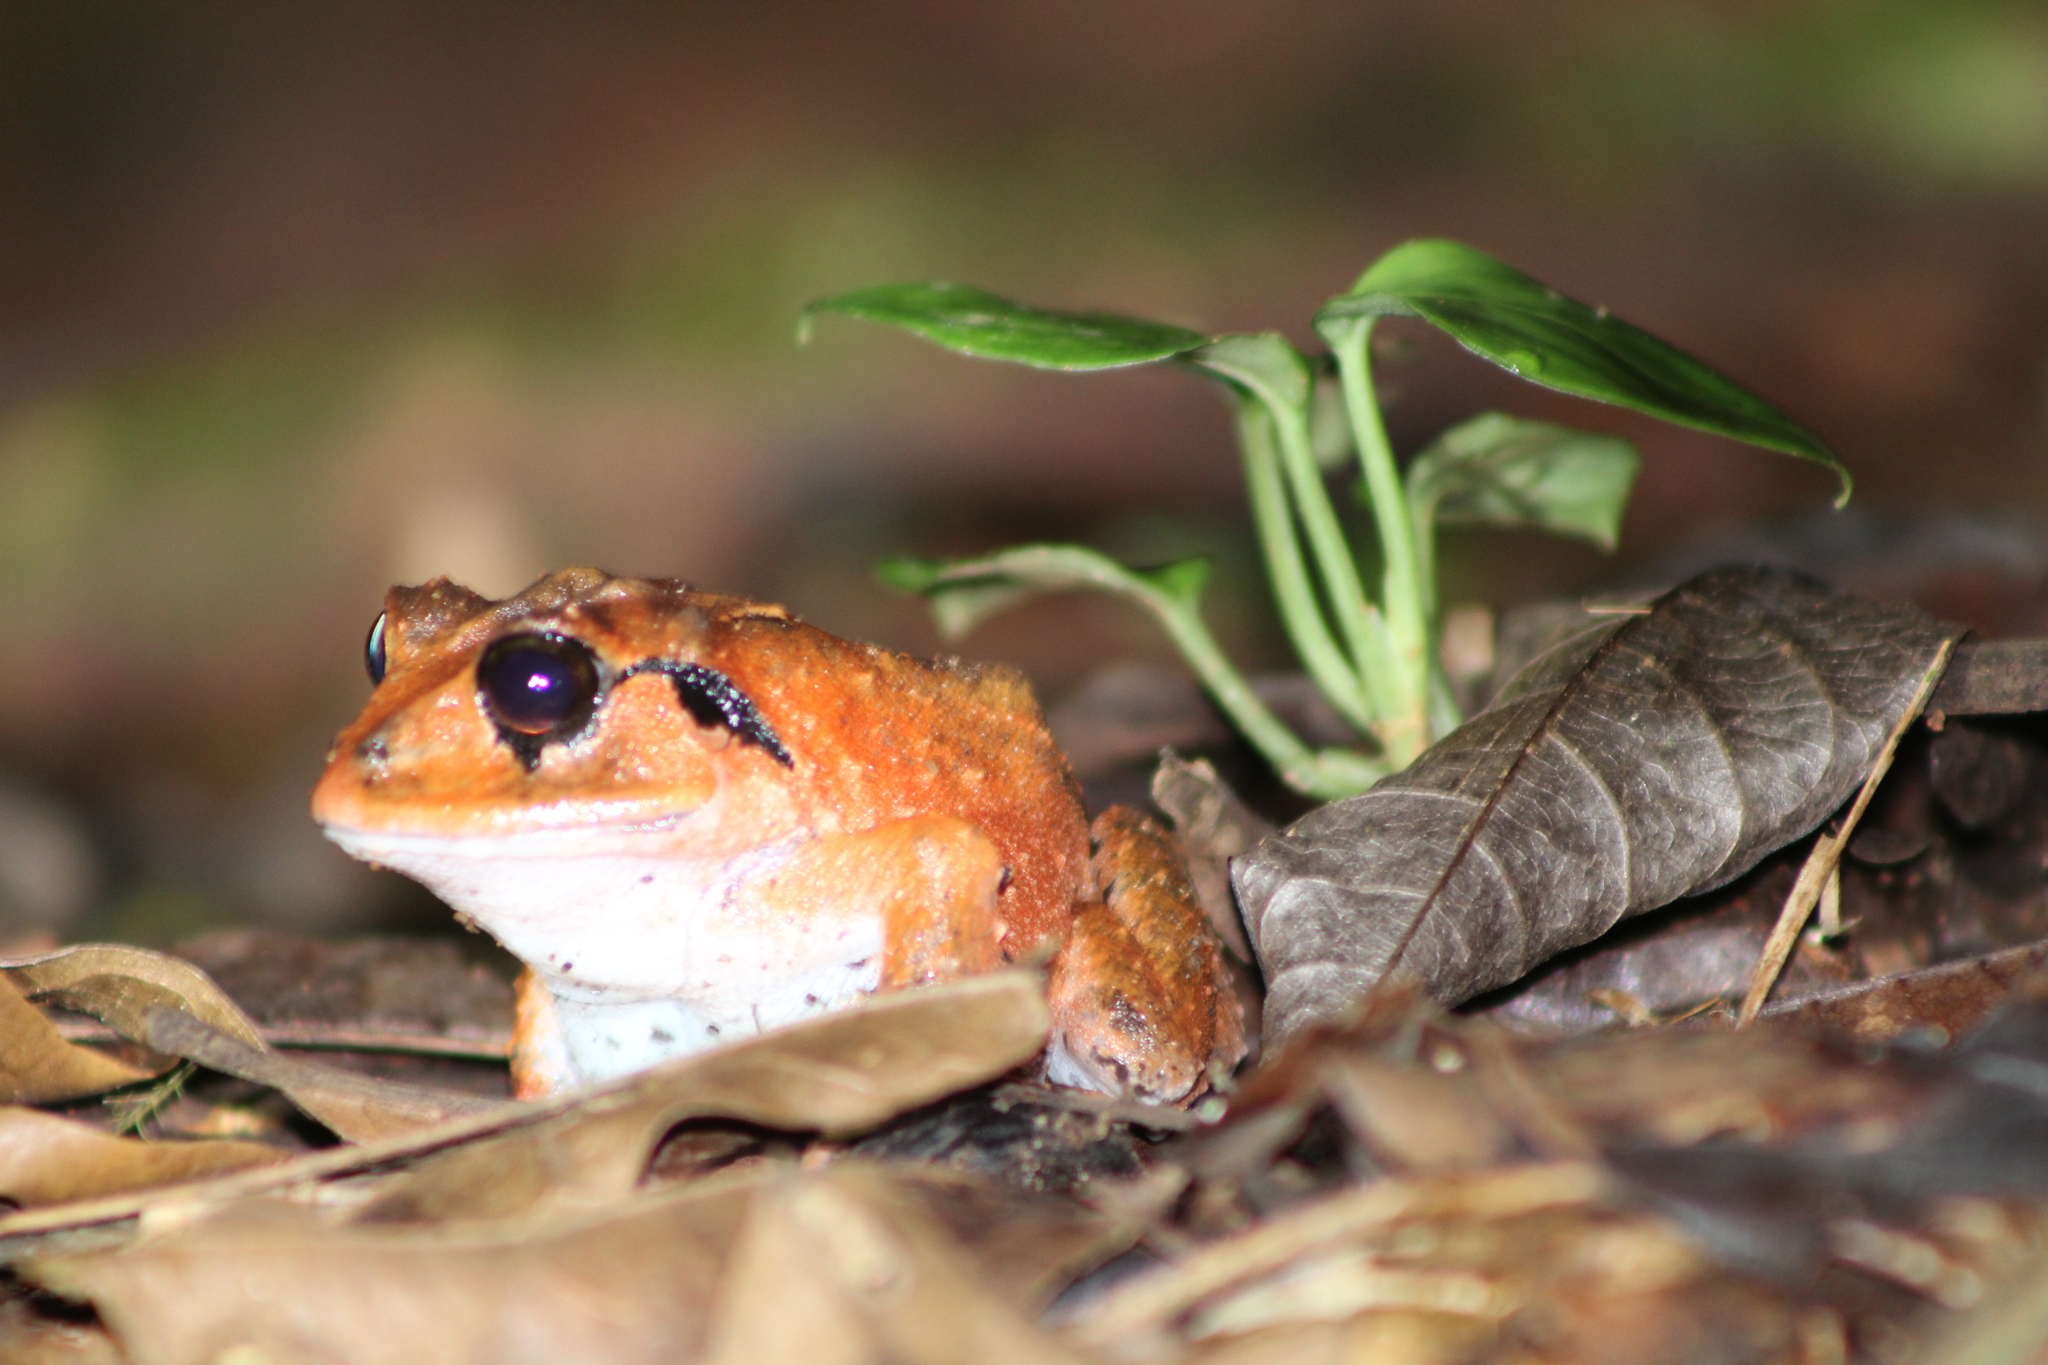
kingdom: Animalia
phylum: Chordata
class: Amphibia
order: Anura
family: Craugastoridae
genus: Craugastor
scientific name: Craugastor megacephalus
